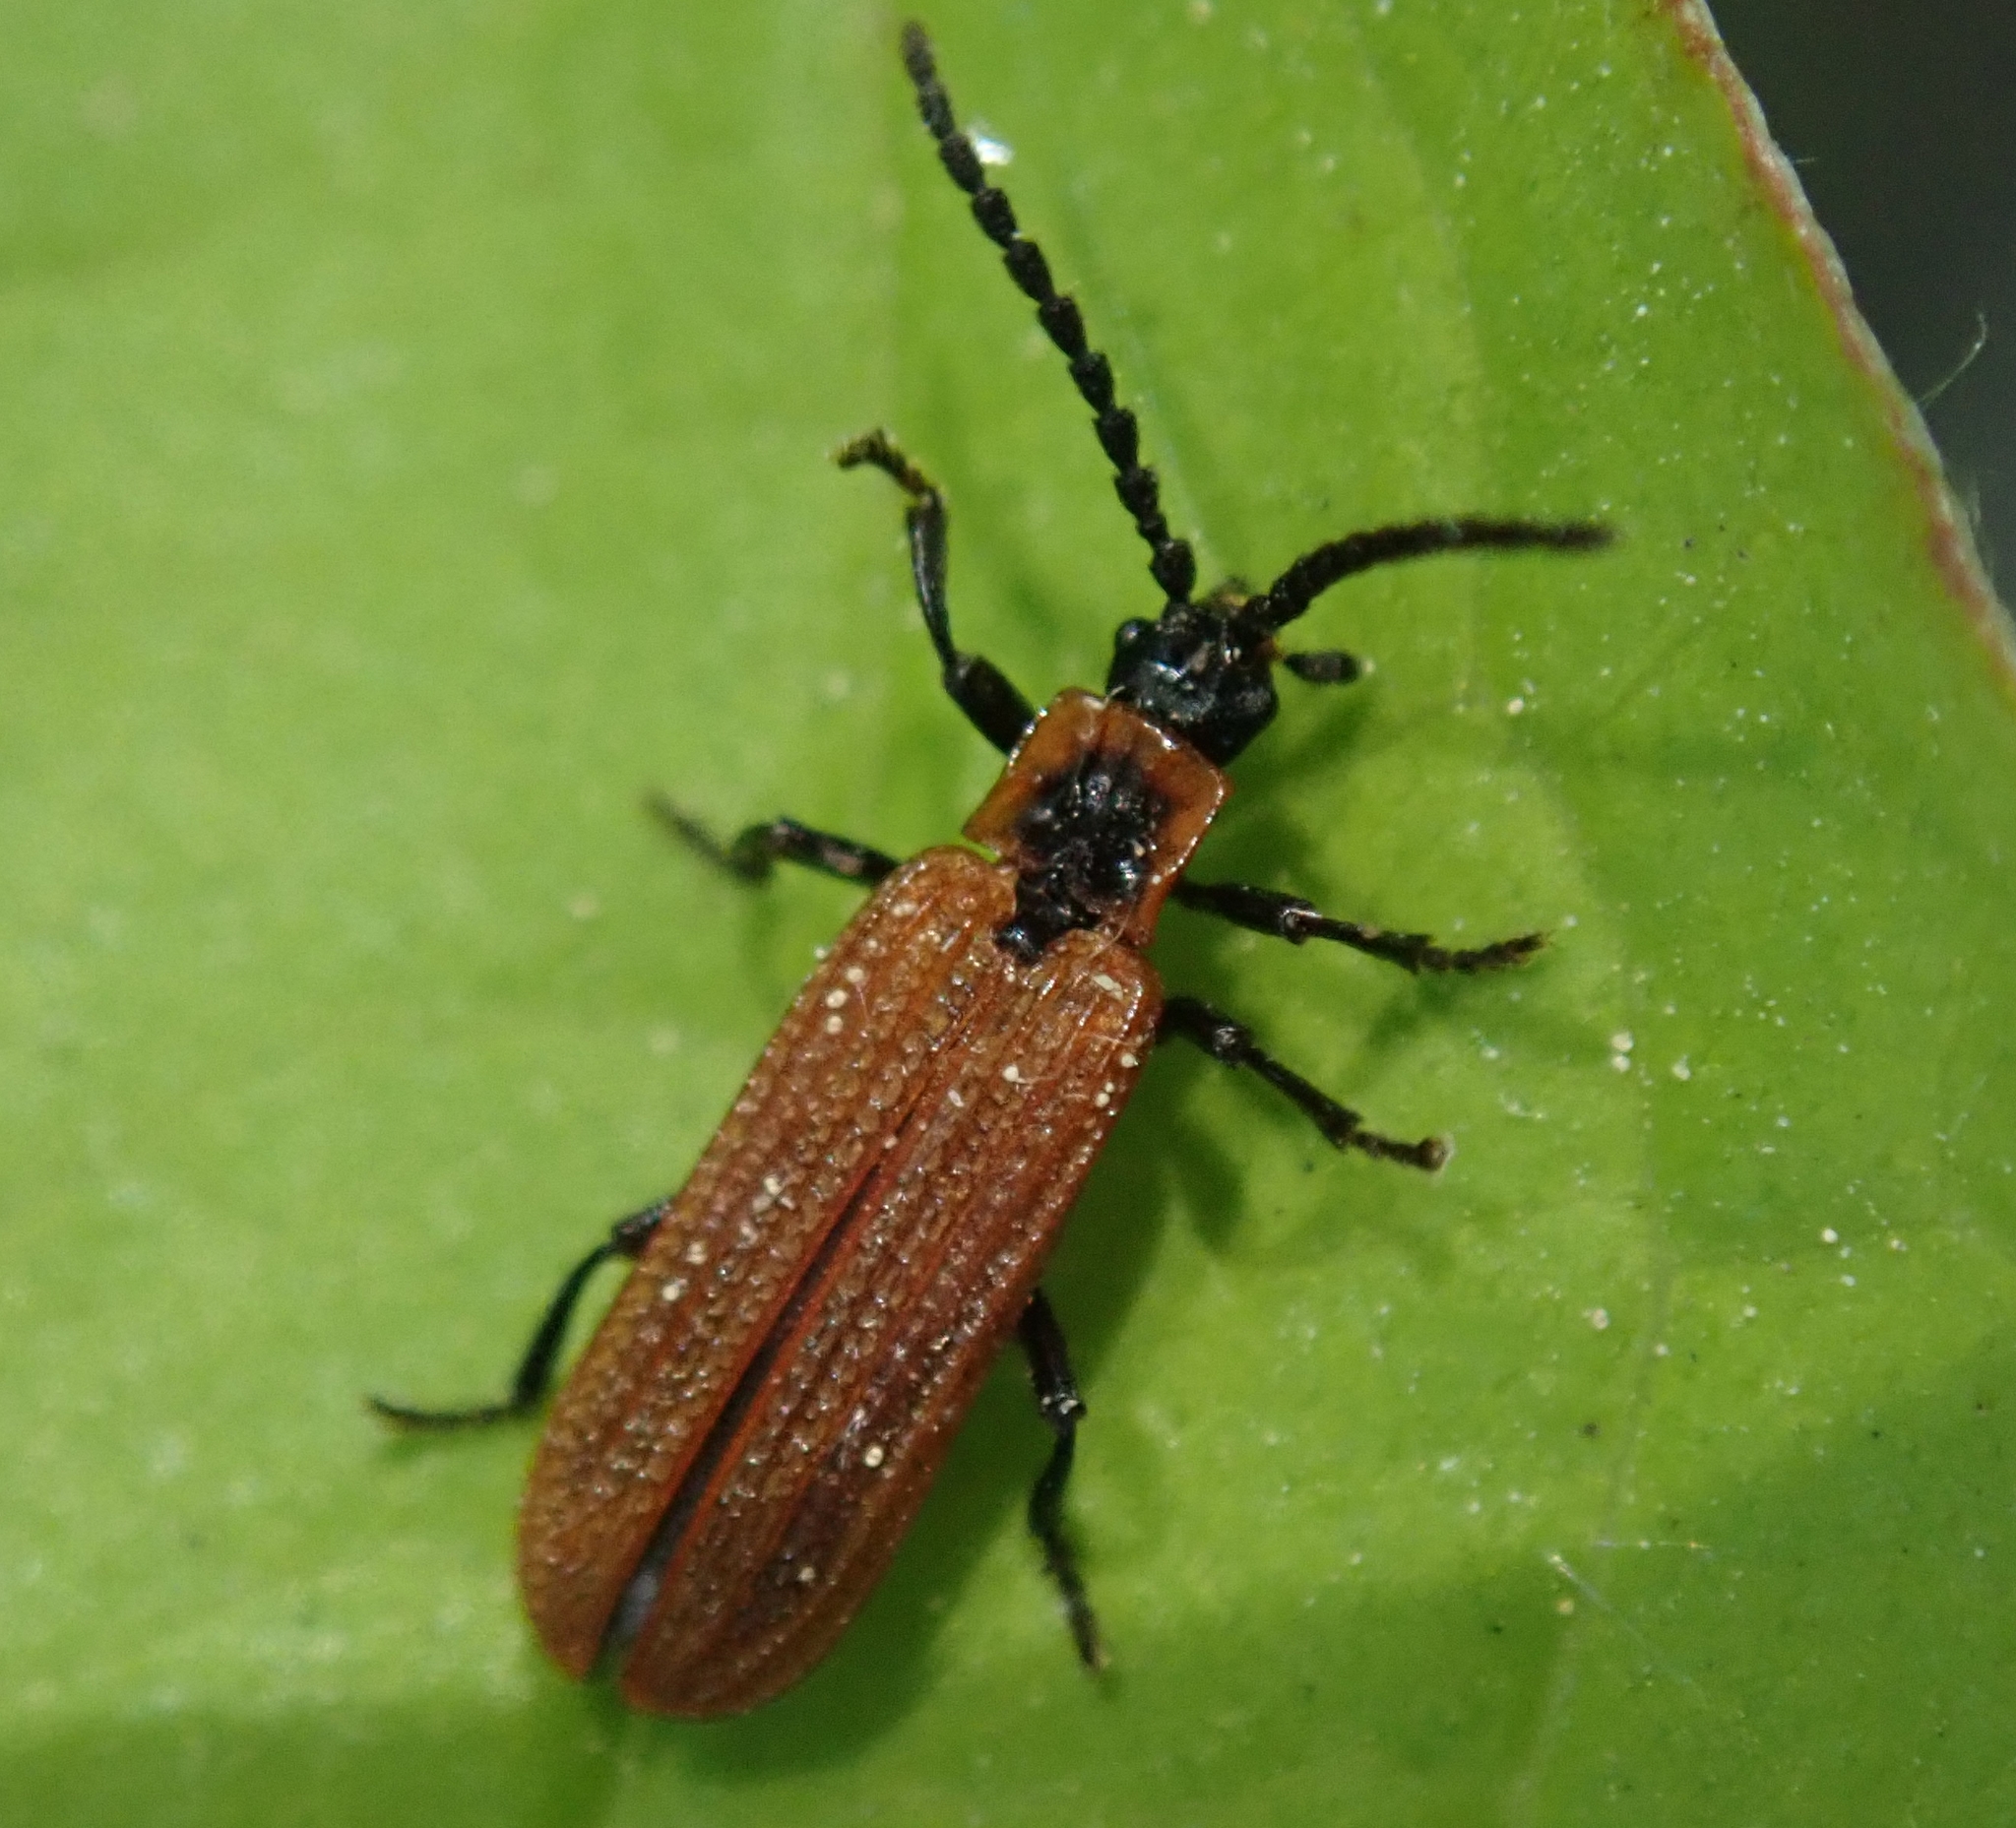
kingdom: Animalia
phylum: Arthropoda
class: Insecta
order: Coleoptera
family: Lycidae
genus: Erotides
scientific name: Erotides cosnardi
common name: Cosnard's net-winged beetle
